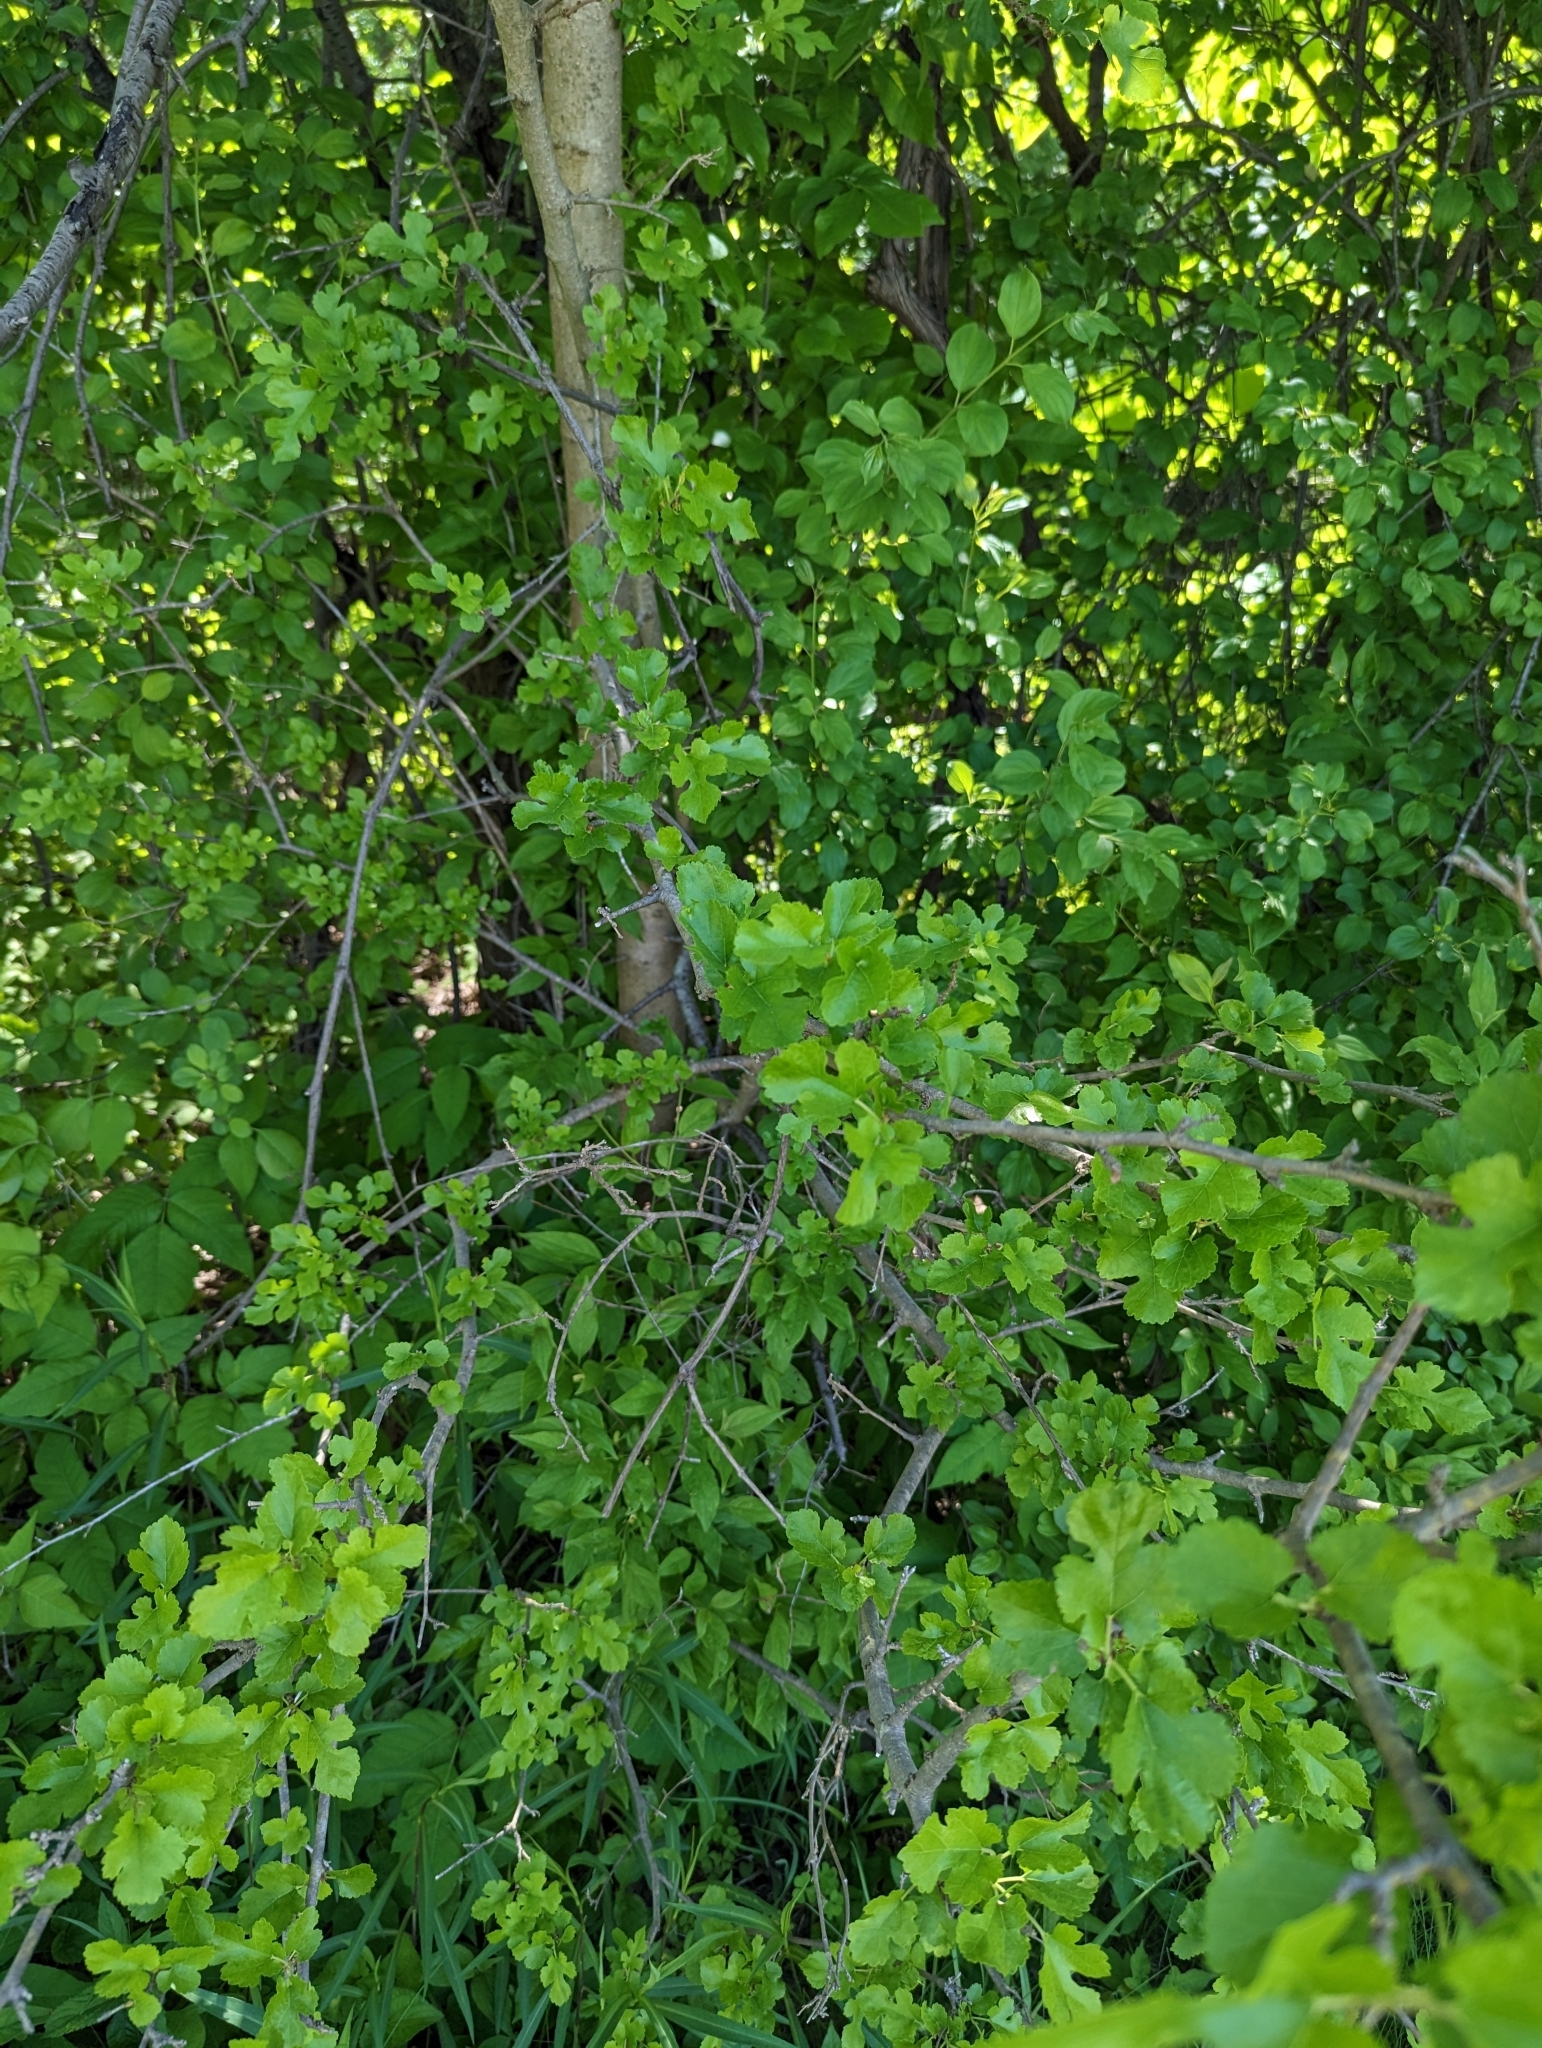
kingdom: Plantae
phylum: Tracheophyta
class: Magnoliopsida
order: Rosales
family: Moraceae
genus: Morus
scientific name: Morus alba
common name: White mulberry
